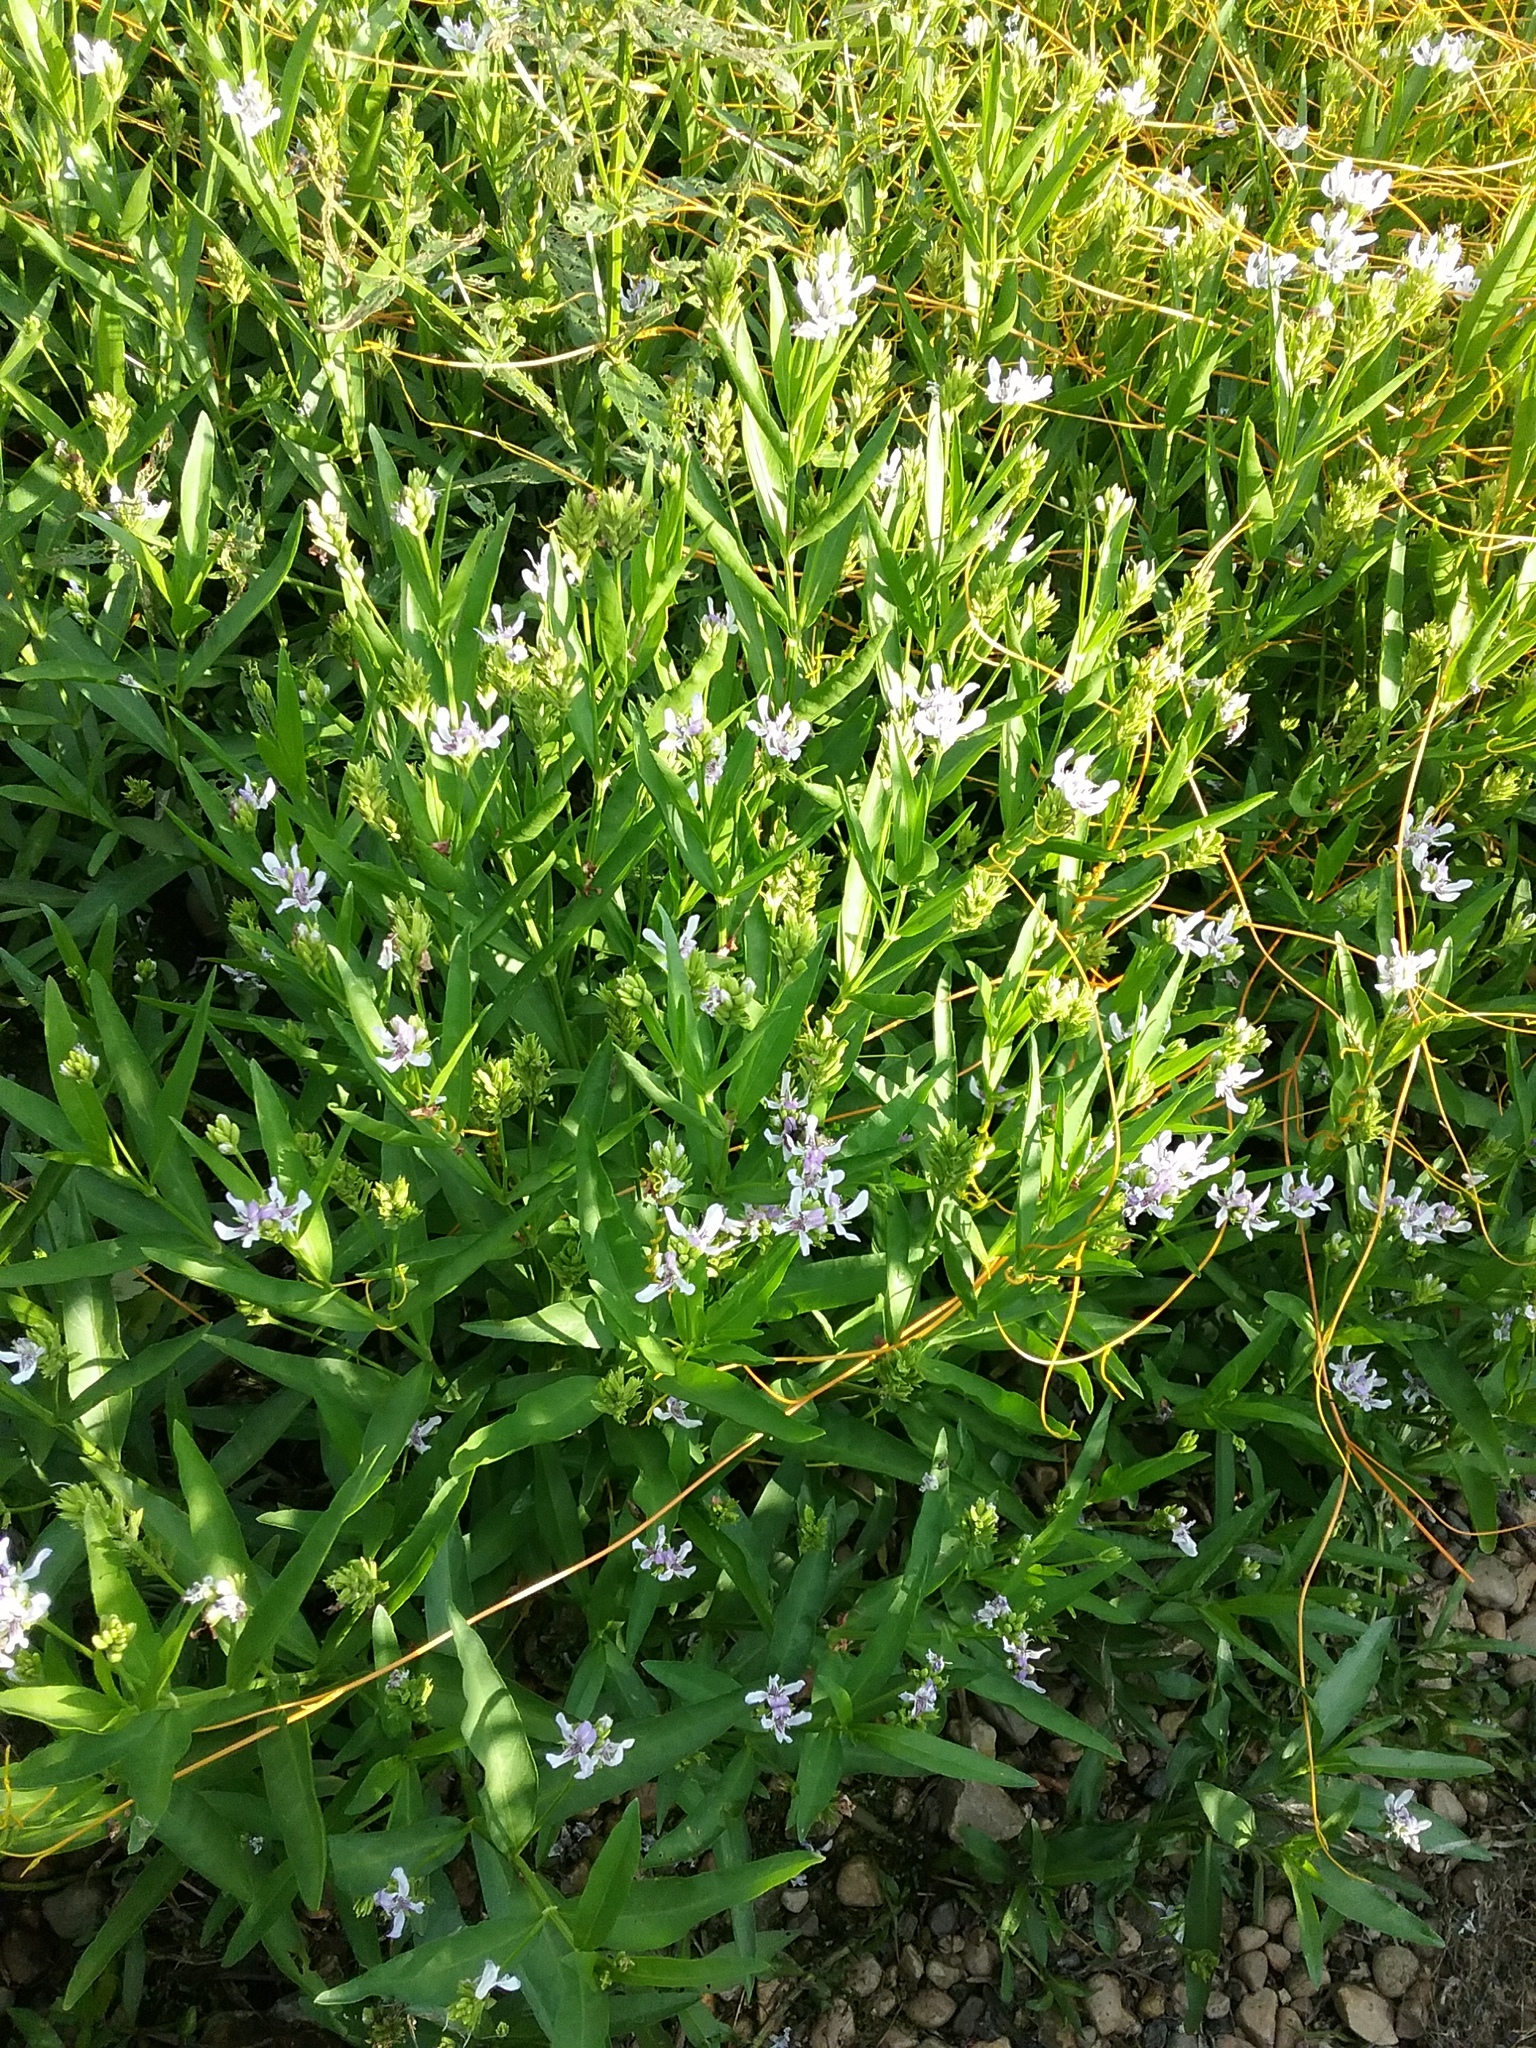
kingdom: Plantae
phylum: Tracheophyta
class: Magnoliopsida
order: Lamiales
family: Acanthaceae
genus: Dianthera
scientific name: Dianthera americana
